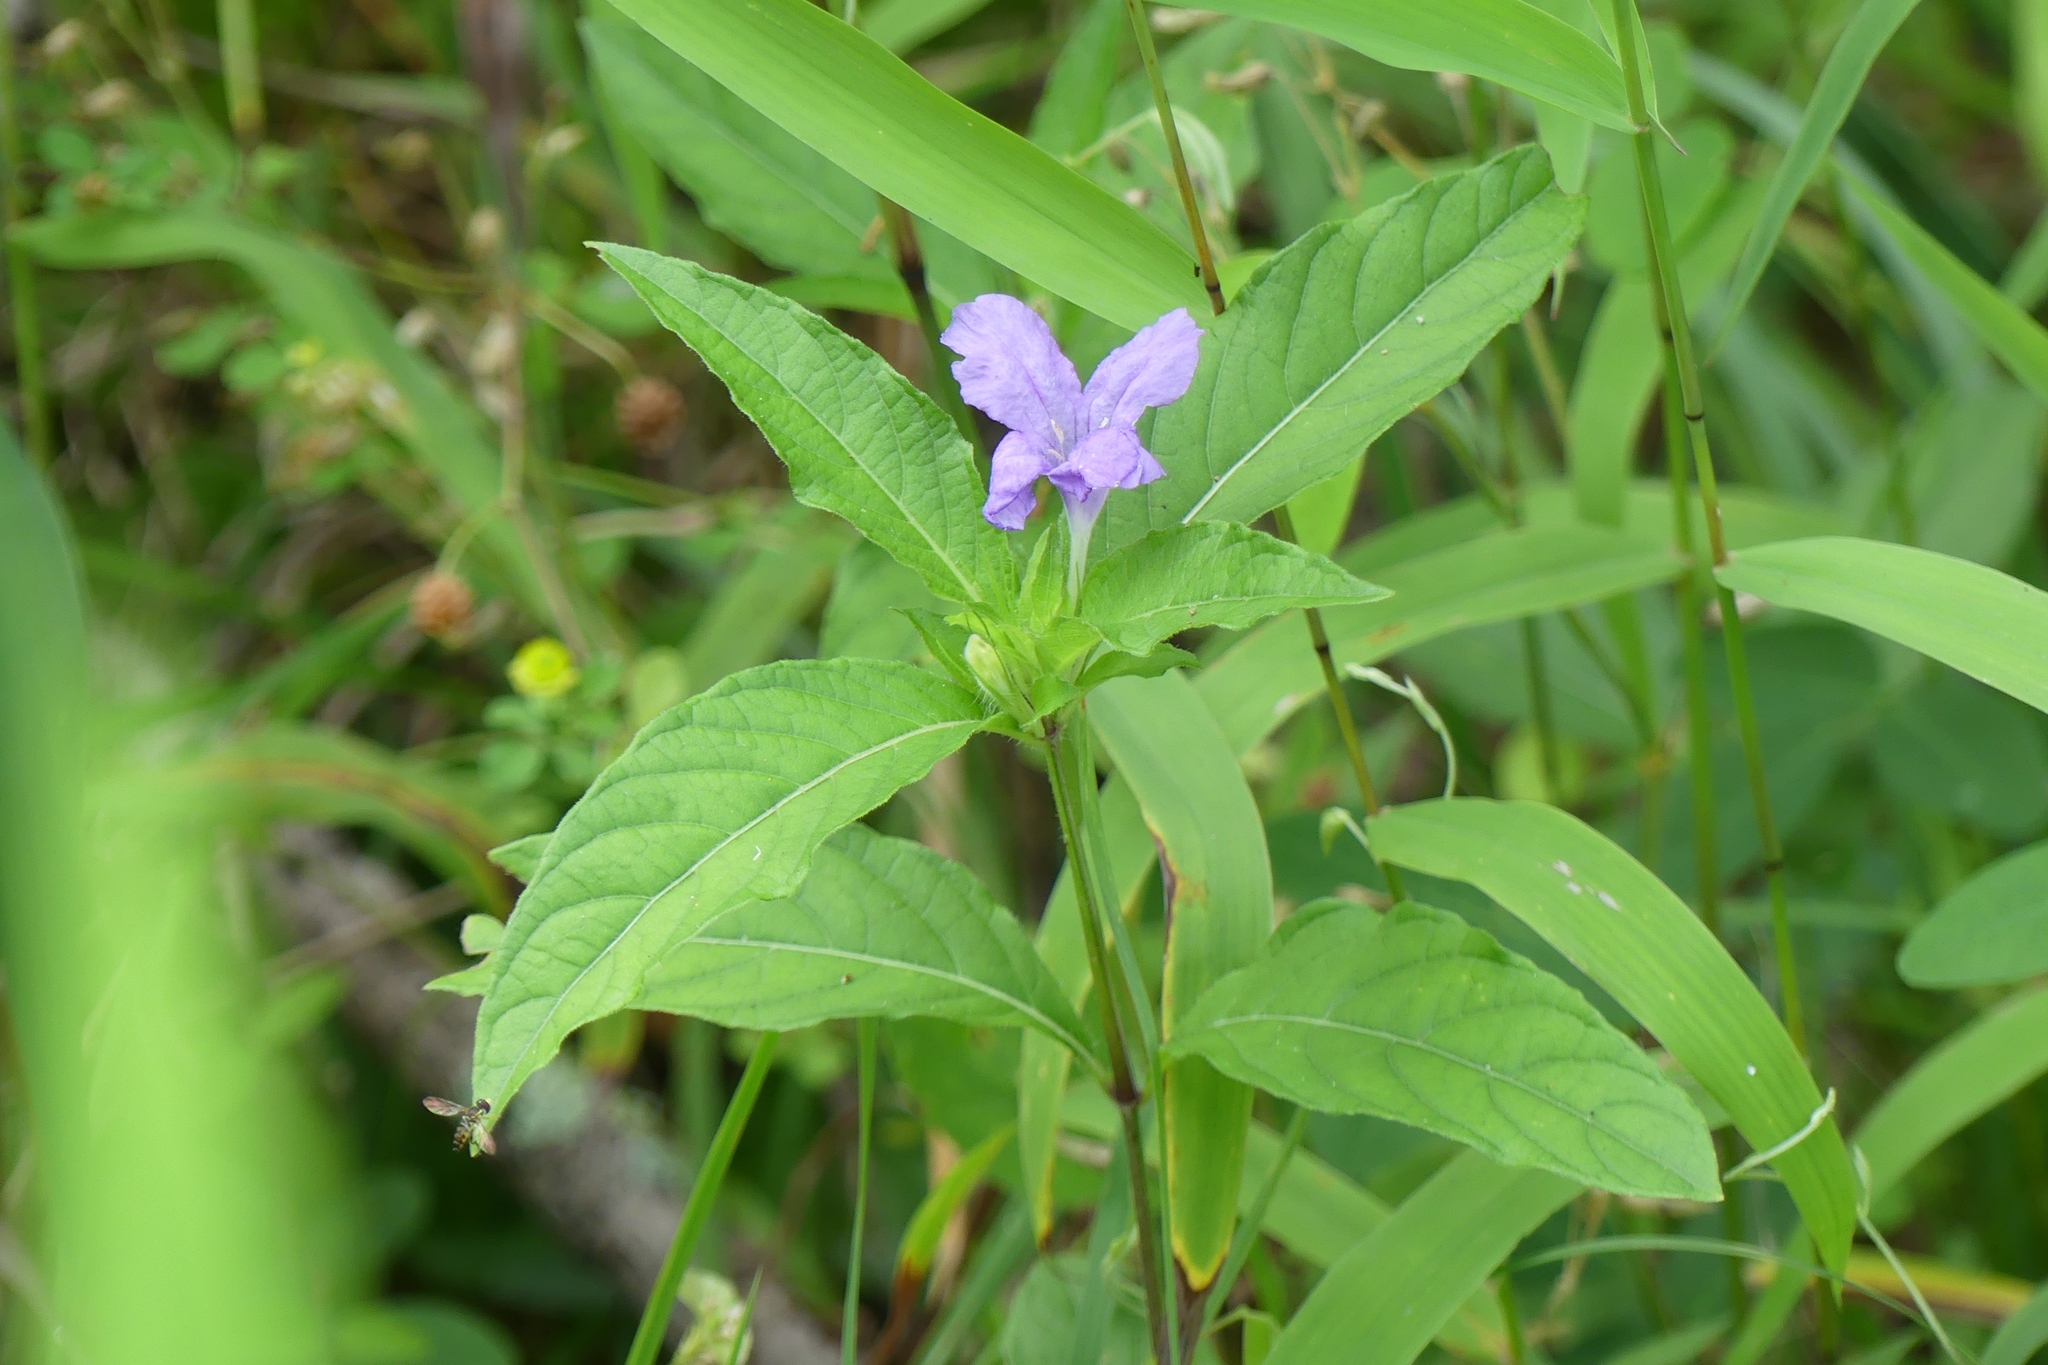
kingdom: Plantae
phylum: Tracheophyta
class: Magnoliopsida
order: Lamiales
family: Acanthaceae
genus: Ruellia
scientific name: Ruellia caroliniensis
